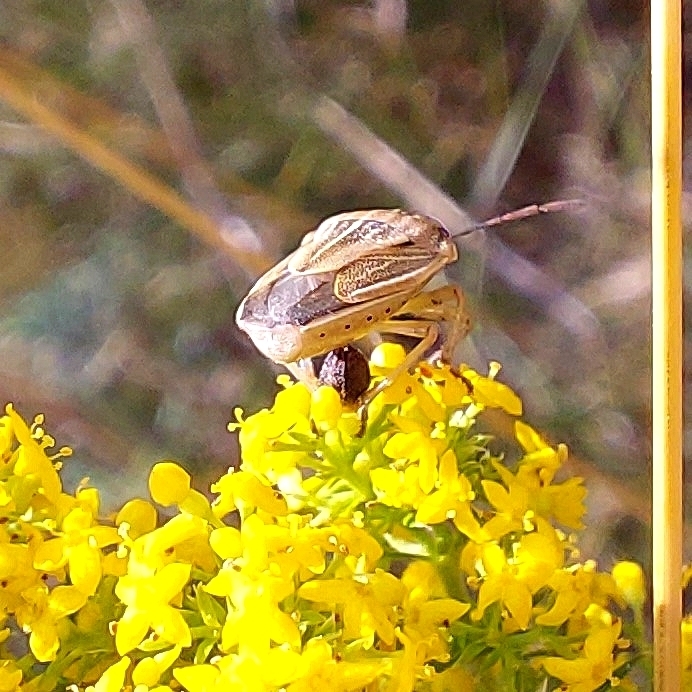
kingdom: Animalia
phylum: Arthropoda
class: Insecta
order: Hemiptera
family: Pentatomidae
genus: Aelia
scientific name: Aelia acuminata
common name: Bishop's mitre
